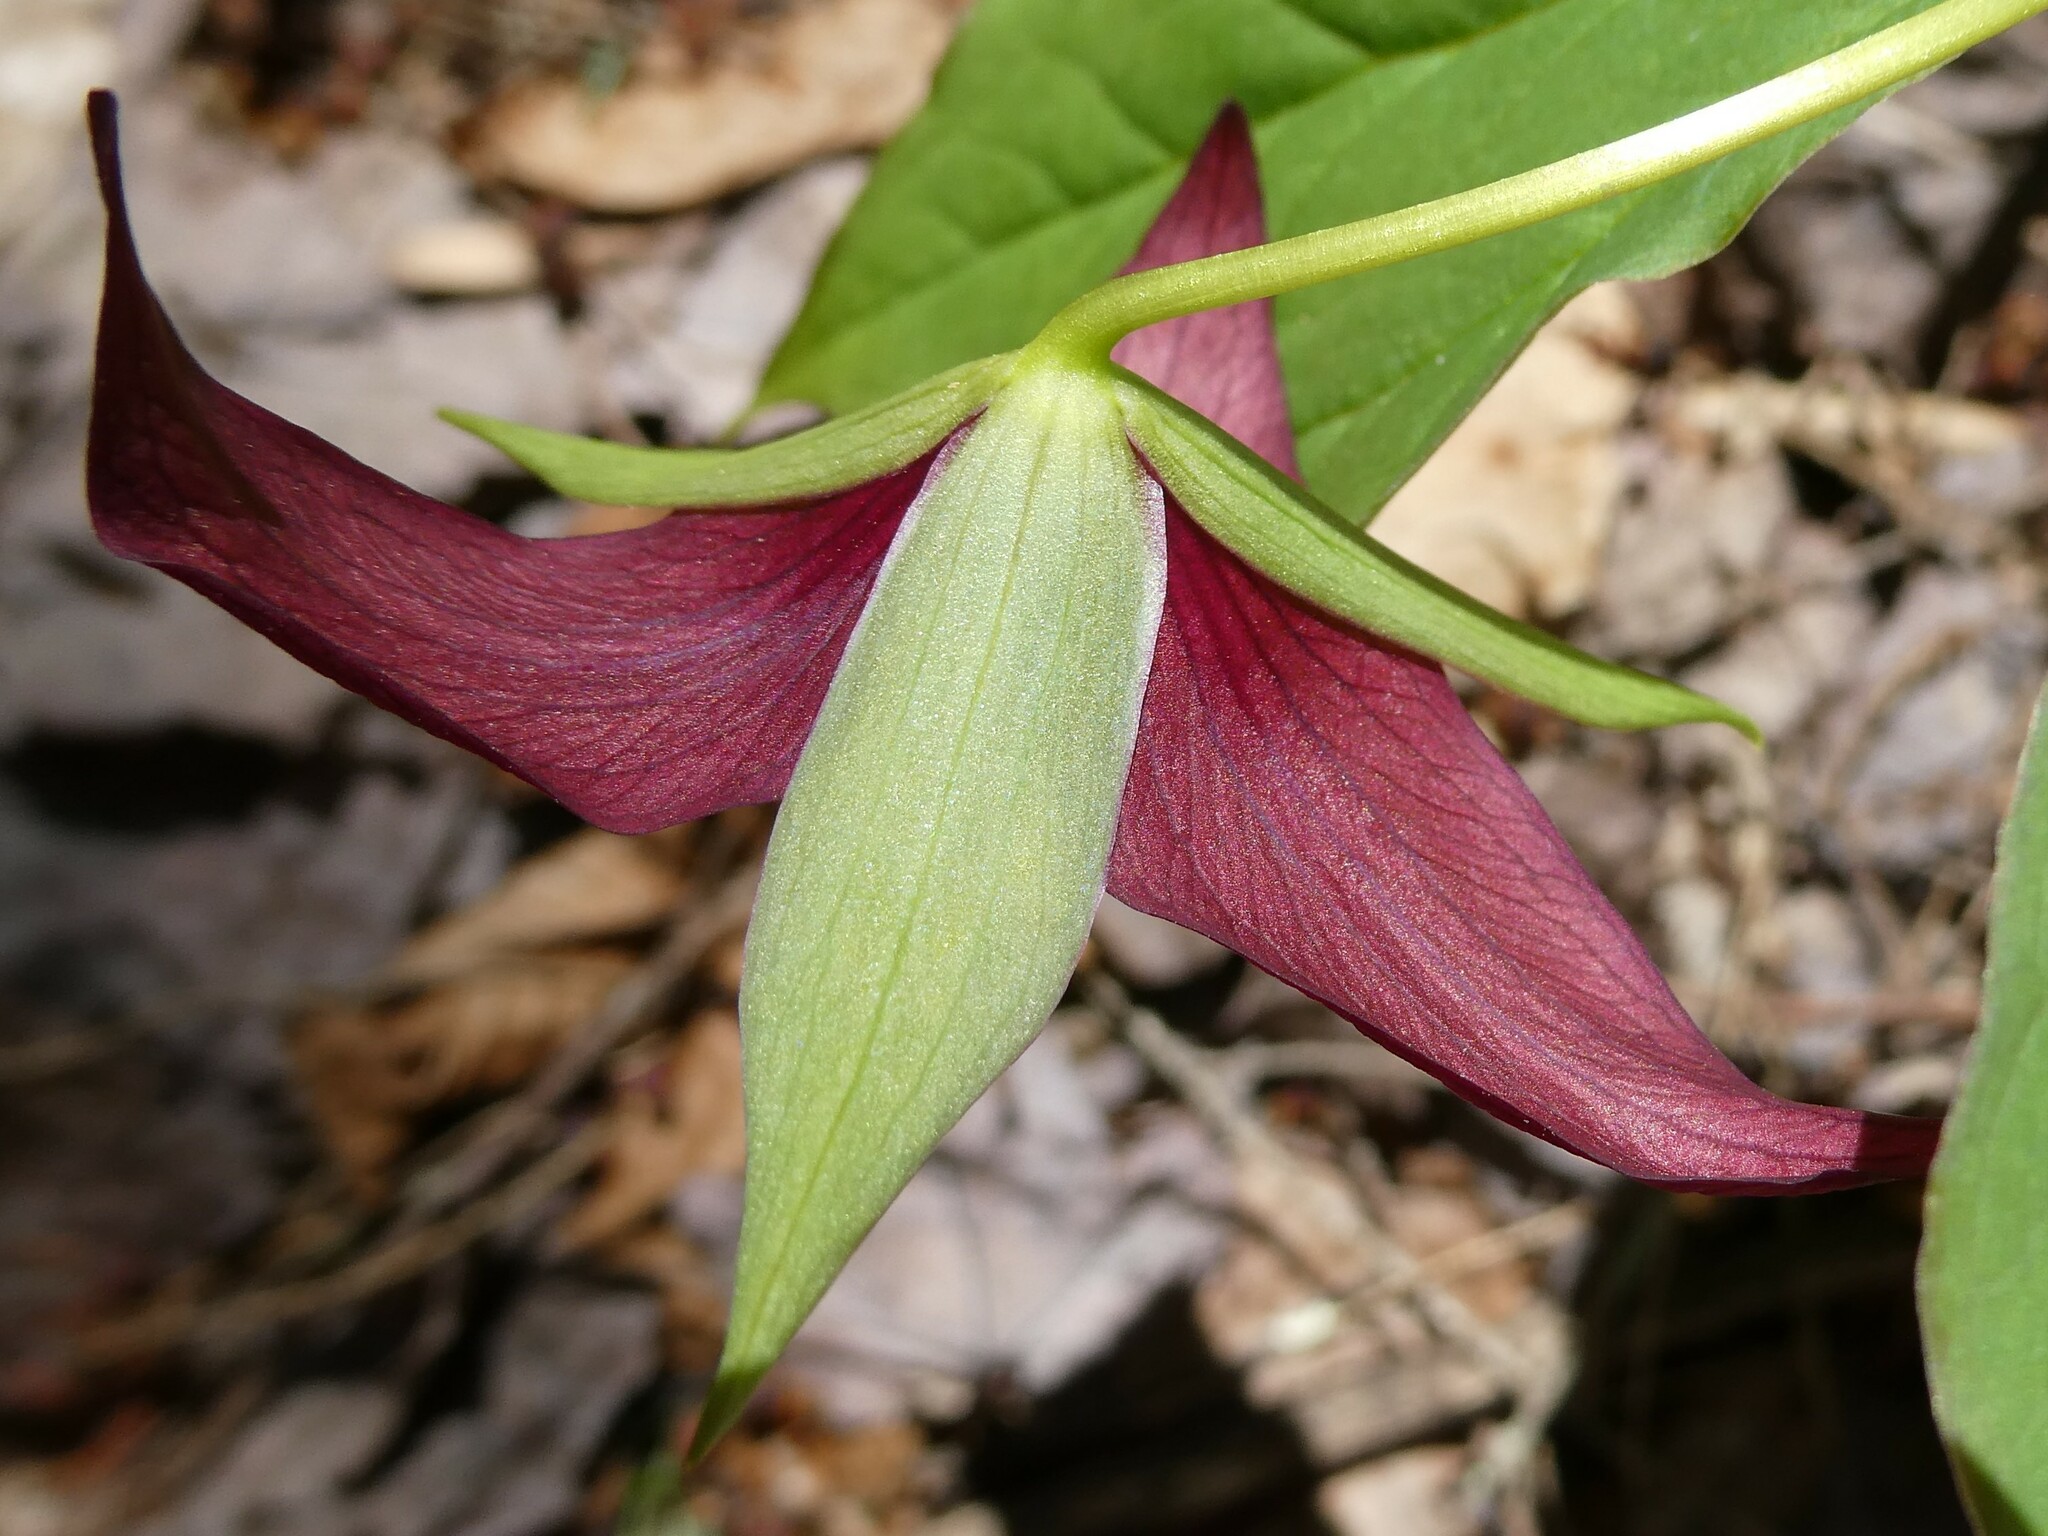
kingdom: Plantae
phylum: Tracheophyta
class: Liliopsida
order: Liliales
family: Melanthiaceae
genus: Trillium
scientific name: Trillium erectum
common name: Purple trillium
